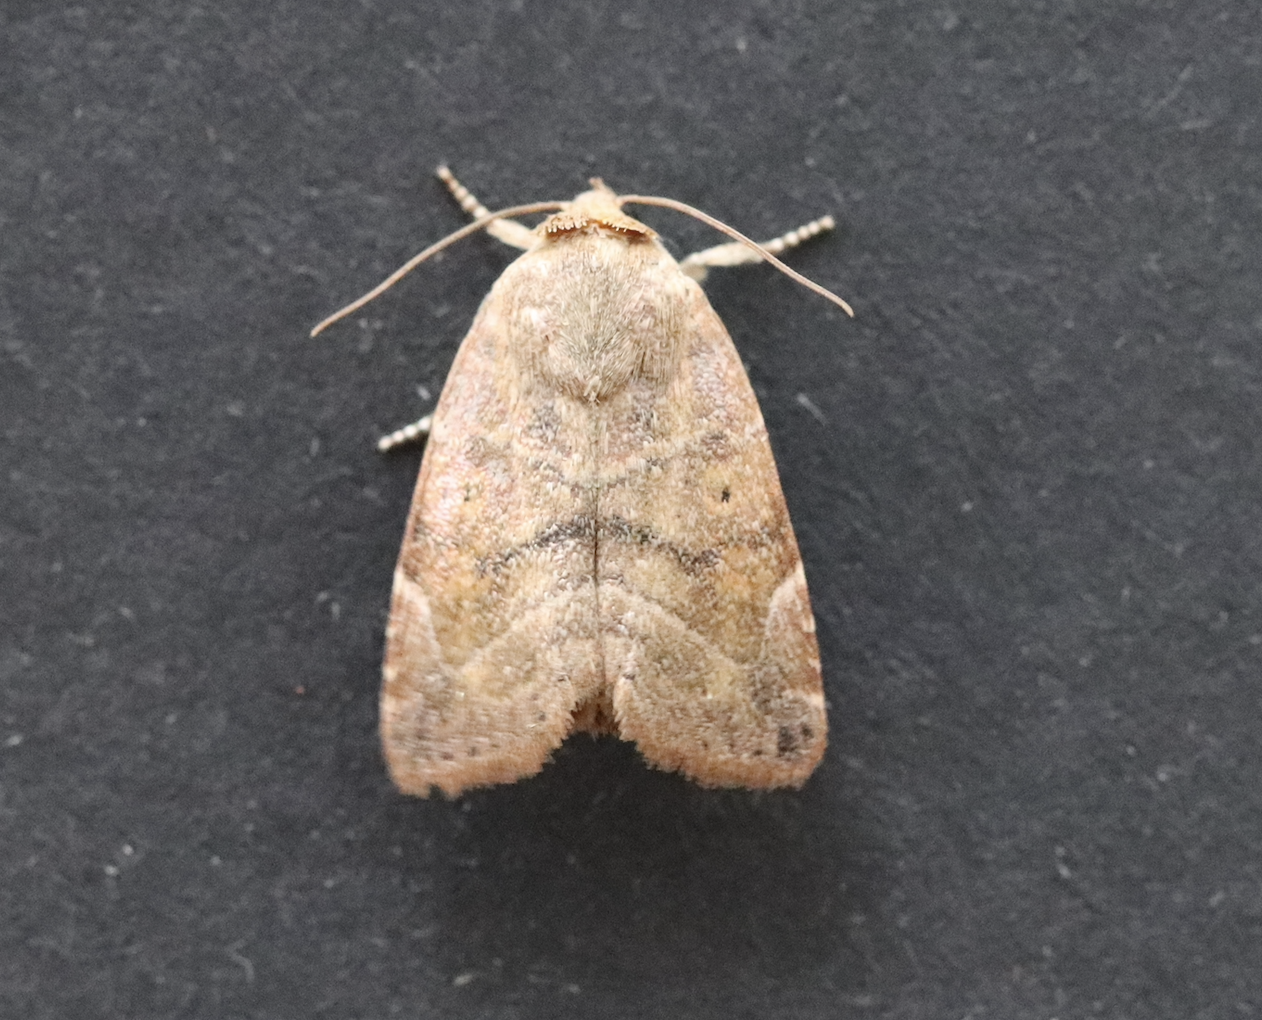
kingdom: Animalia
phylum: Arthropoda
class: Insecta
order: Lepidoptera
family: Noctuidae
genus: Cosmia
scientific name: Cosmia affinis
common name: Lesser-spotted pinion
